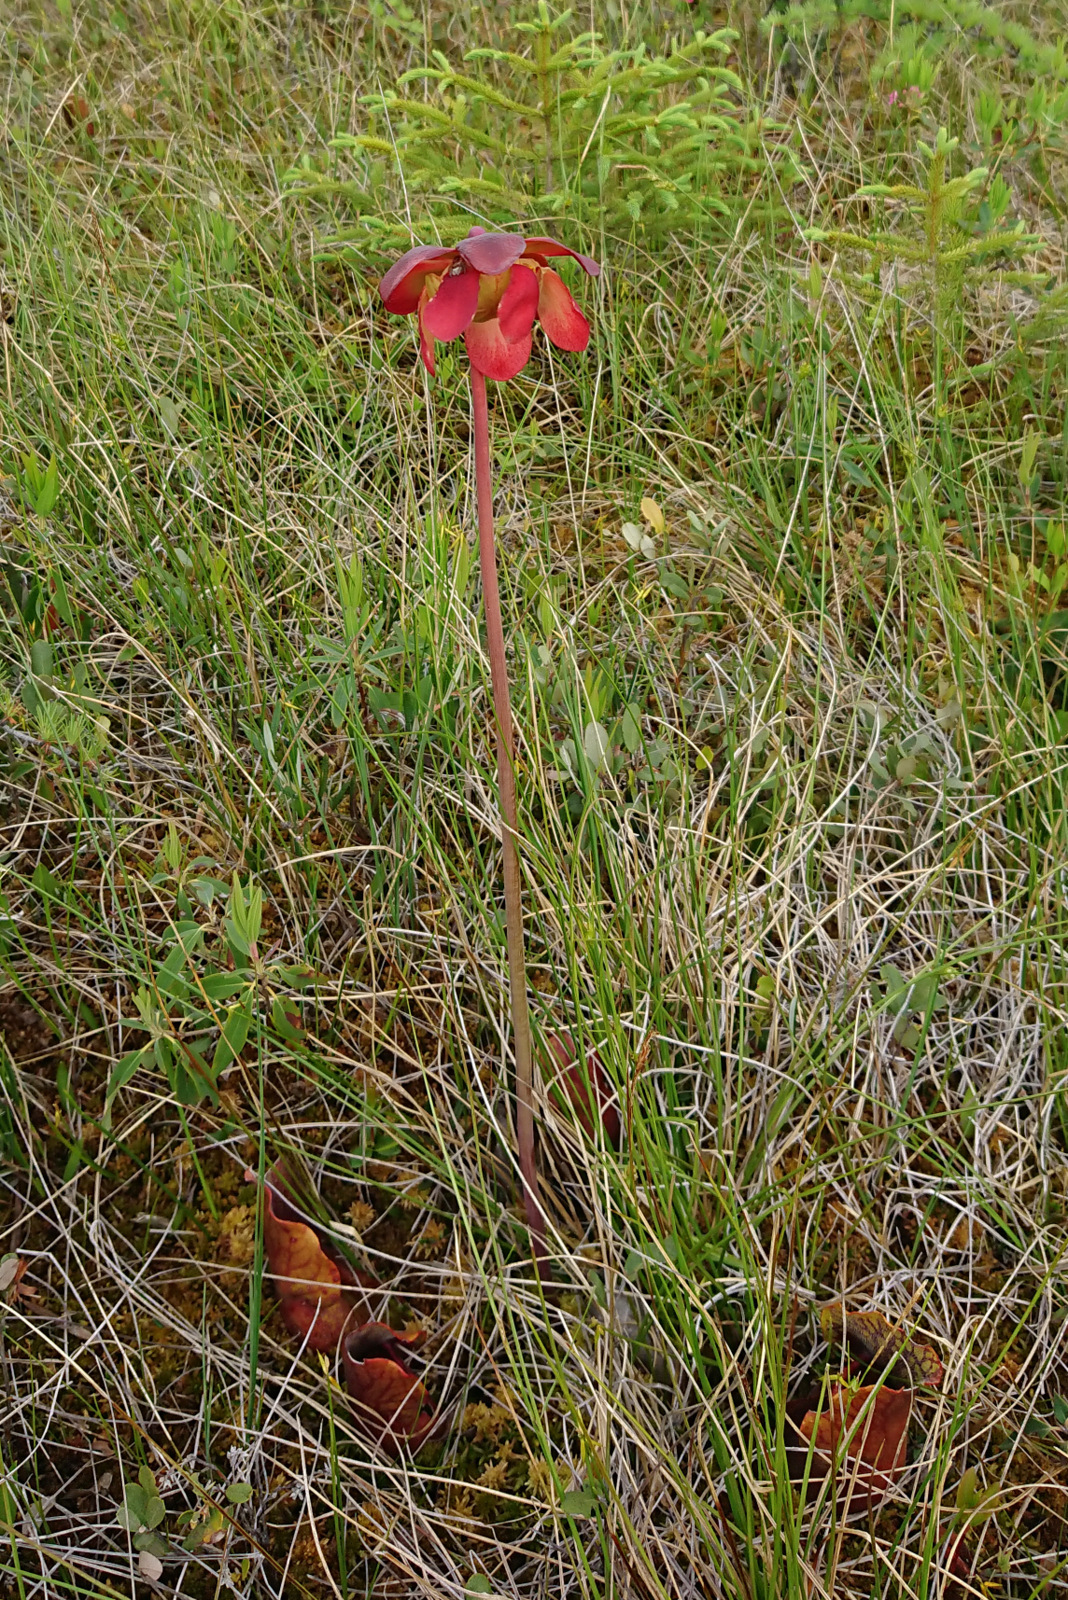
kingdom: Plantae
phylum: Tracheophyta
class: Magnoliopsida
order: Ericales
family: Sarraceniaceae
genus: Sarracenia
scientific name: Sarracenia purpurea
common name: Pitcherplant
